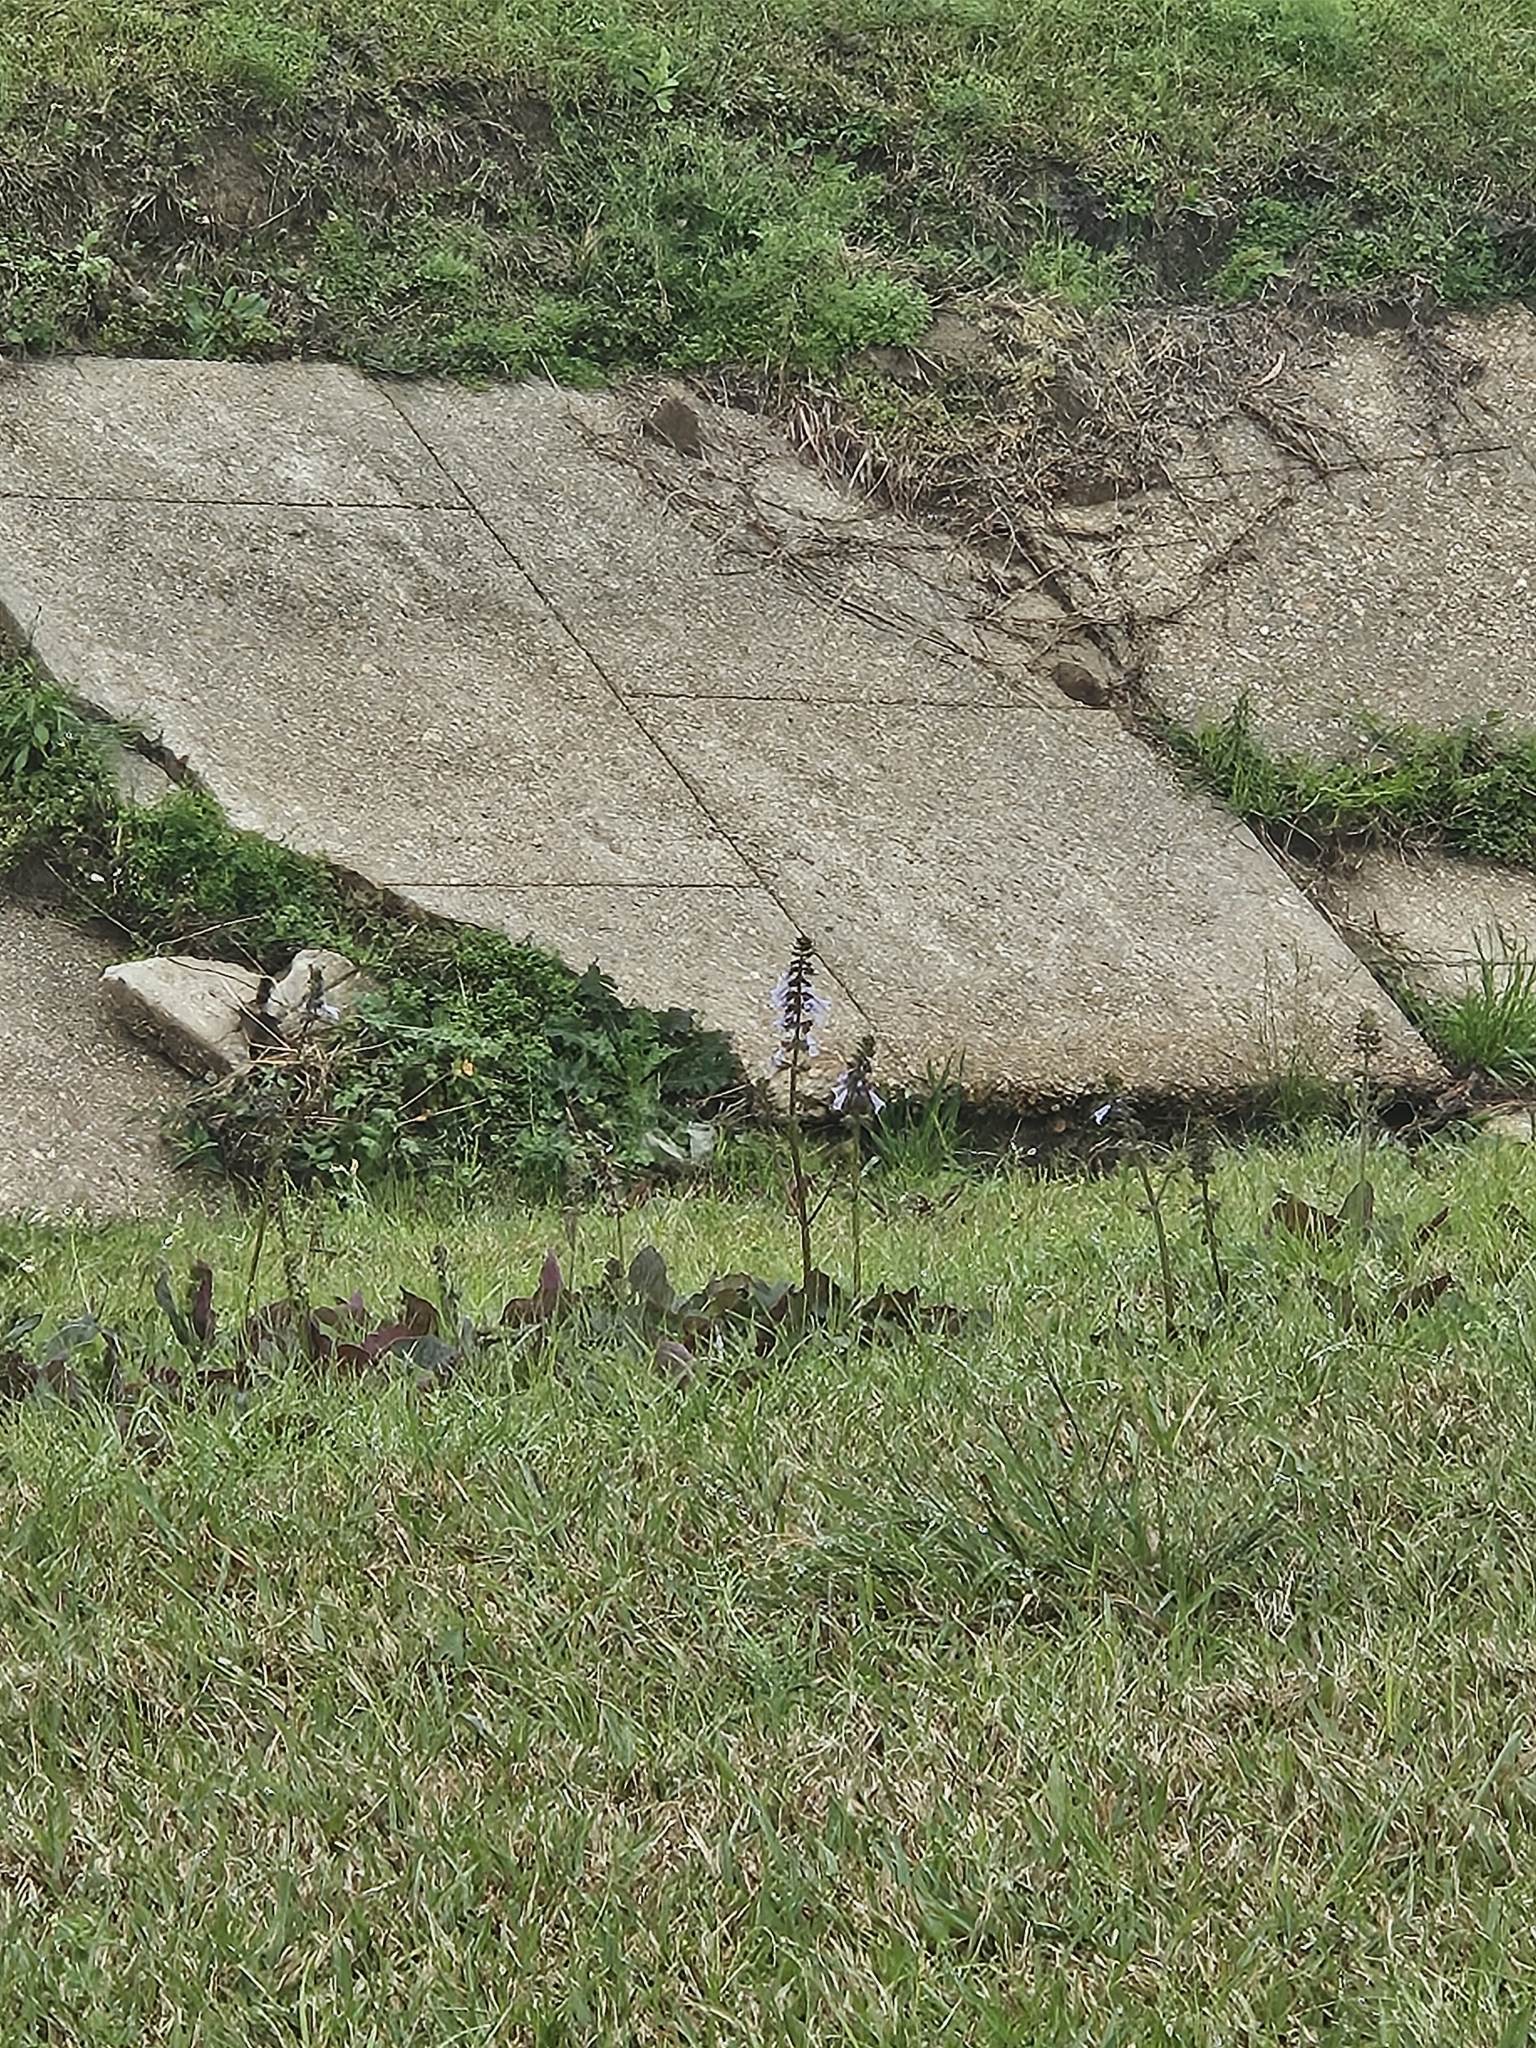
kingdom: Plantae
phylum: Tracheophyta
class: Magnoliopsida
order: Lamiales
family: Lamiaceae
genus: Salvia
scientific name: Salvia lyrata
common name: Cancerweed
